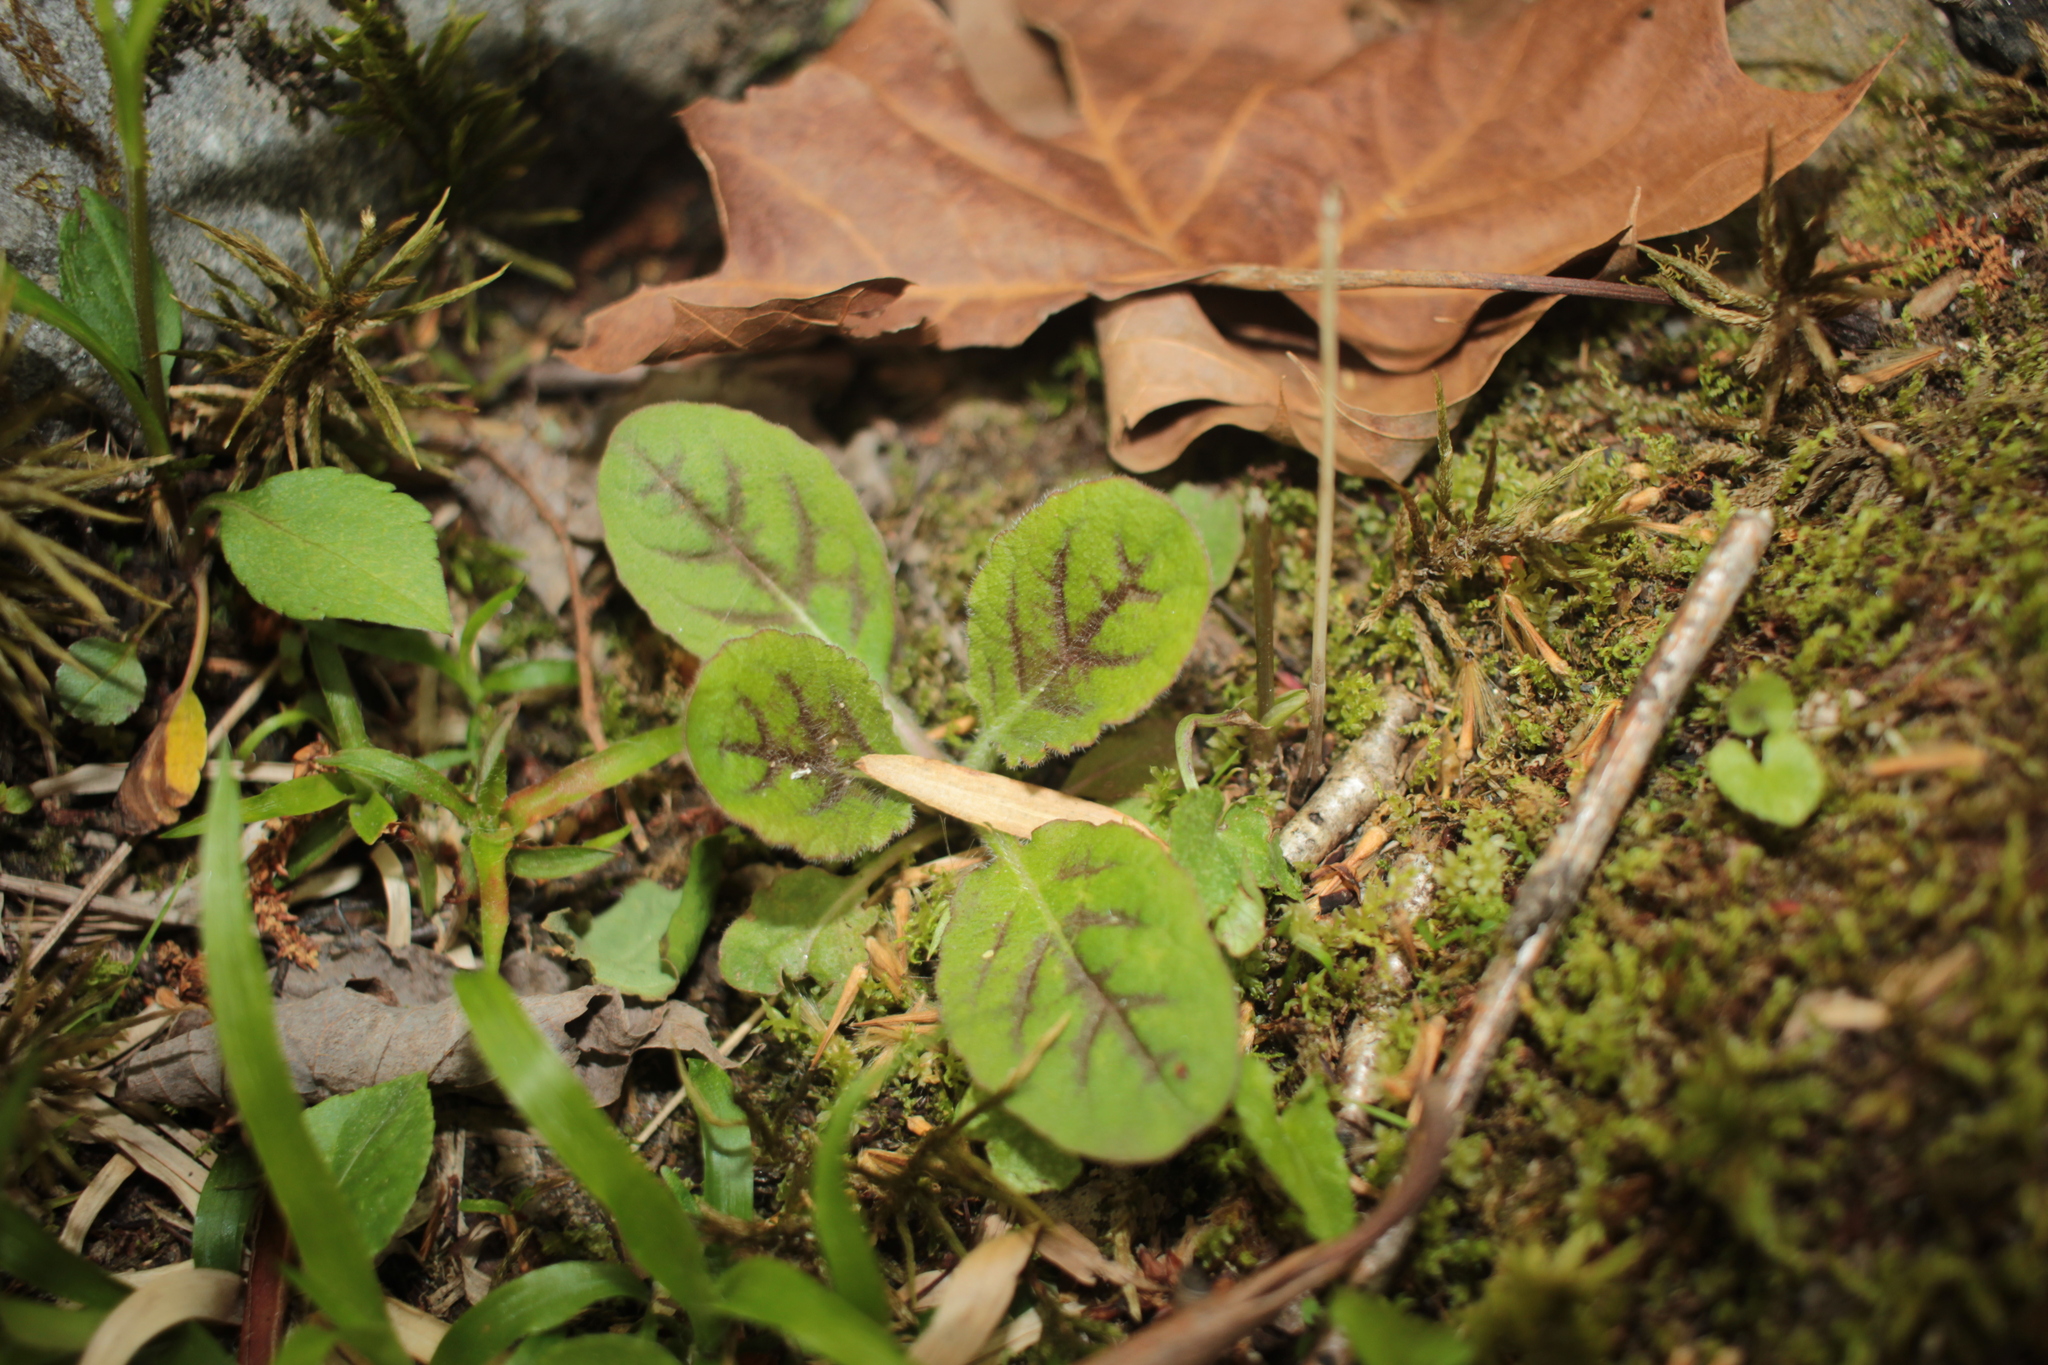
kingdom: Plantae
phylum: Tracheophyta
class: Magnoliopsida
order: Asterales
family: Asteraceae
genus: Hieracium
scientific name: Hieracium venosum
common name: Rattlesnake hawkweed
